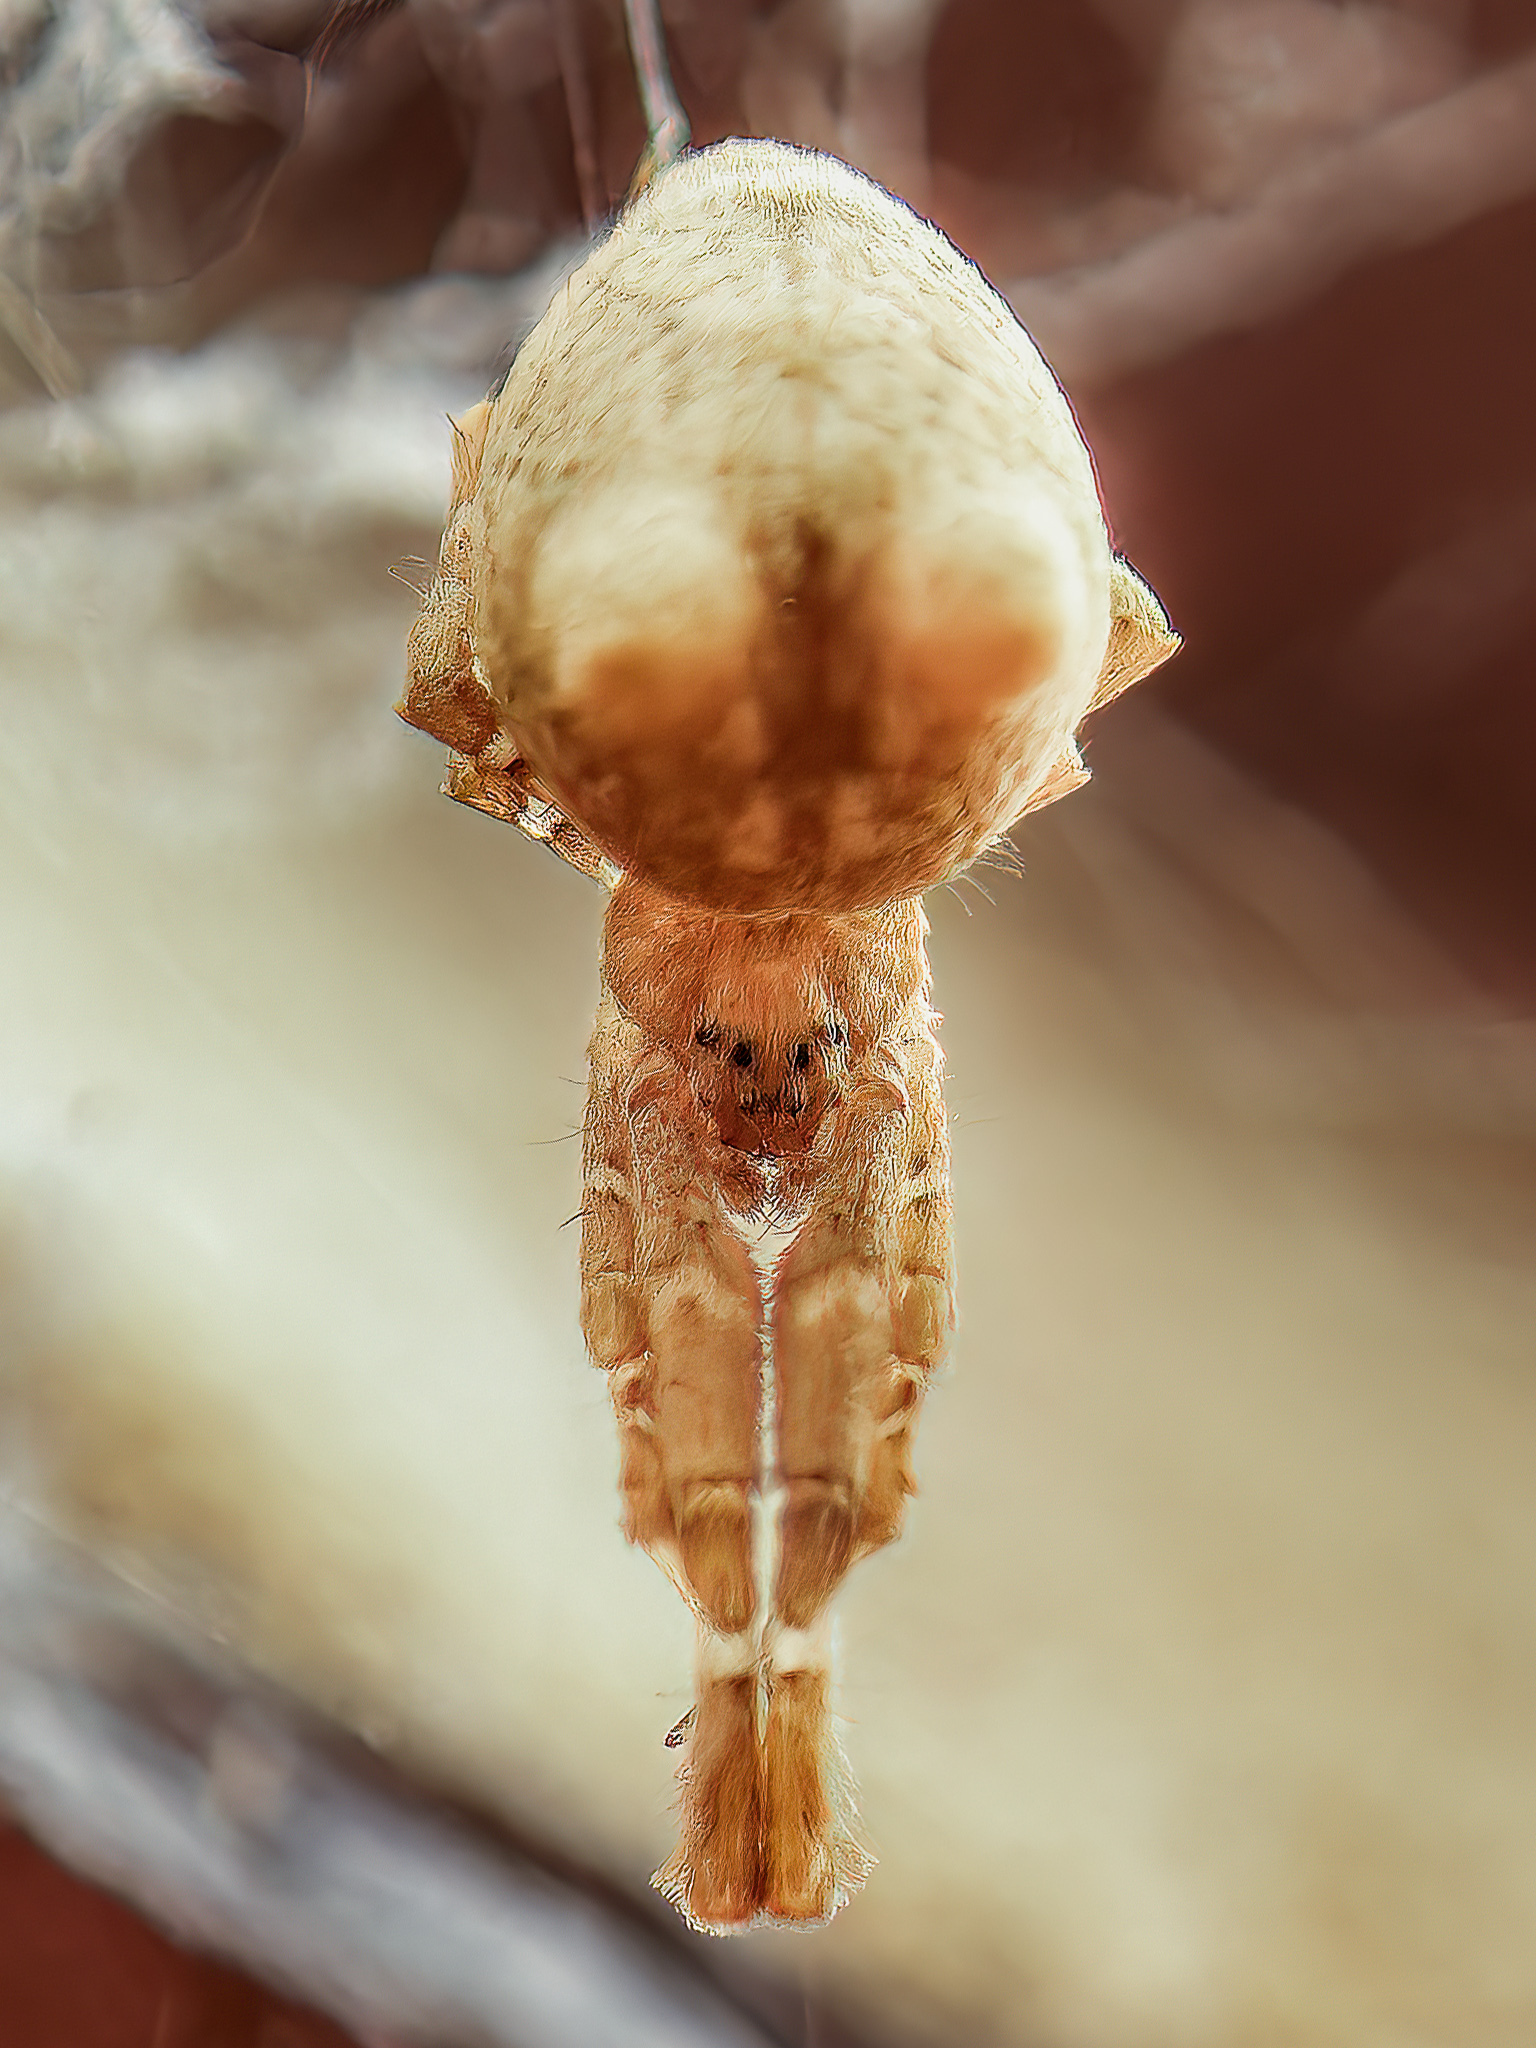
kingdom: Animalia
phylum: Arthropoda
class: Arachnida
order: Araneae
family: Uloboridae
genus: Uloborus
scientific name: Uloborus glomosus
